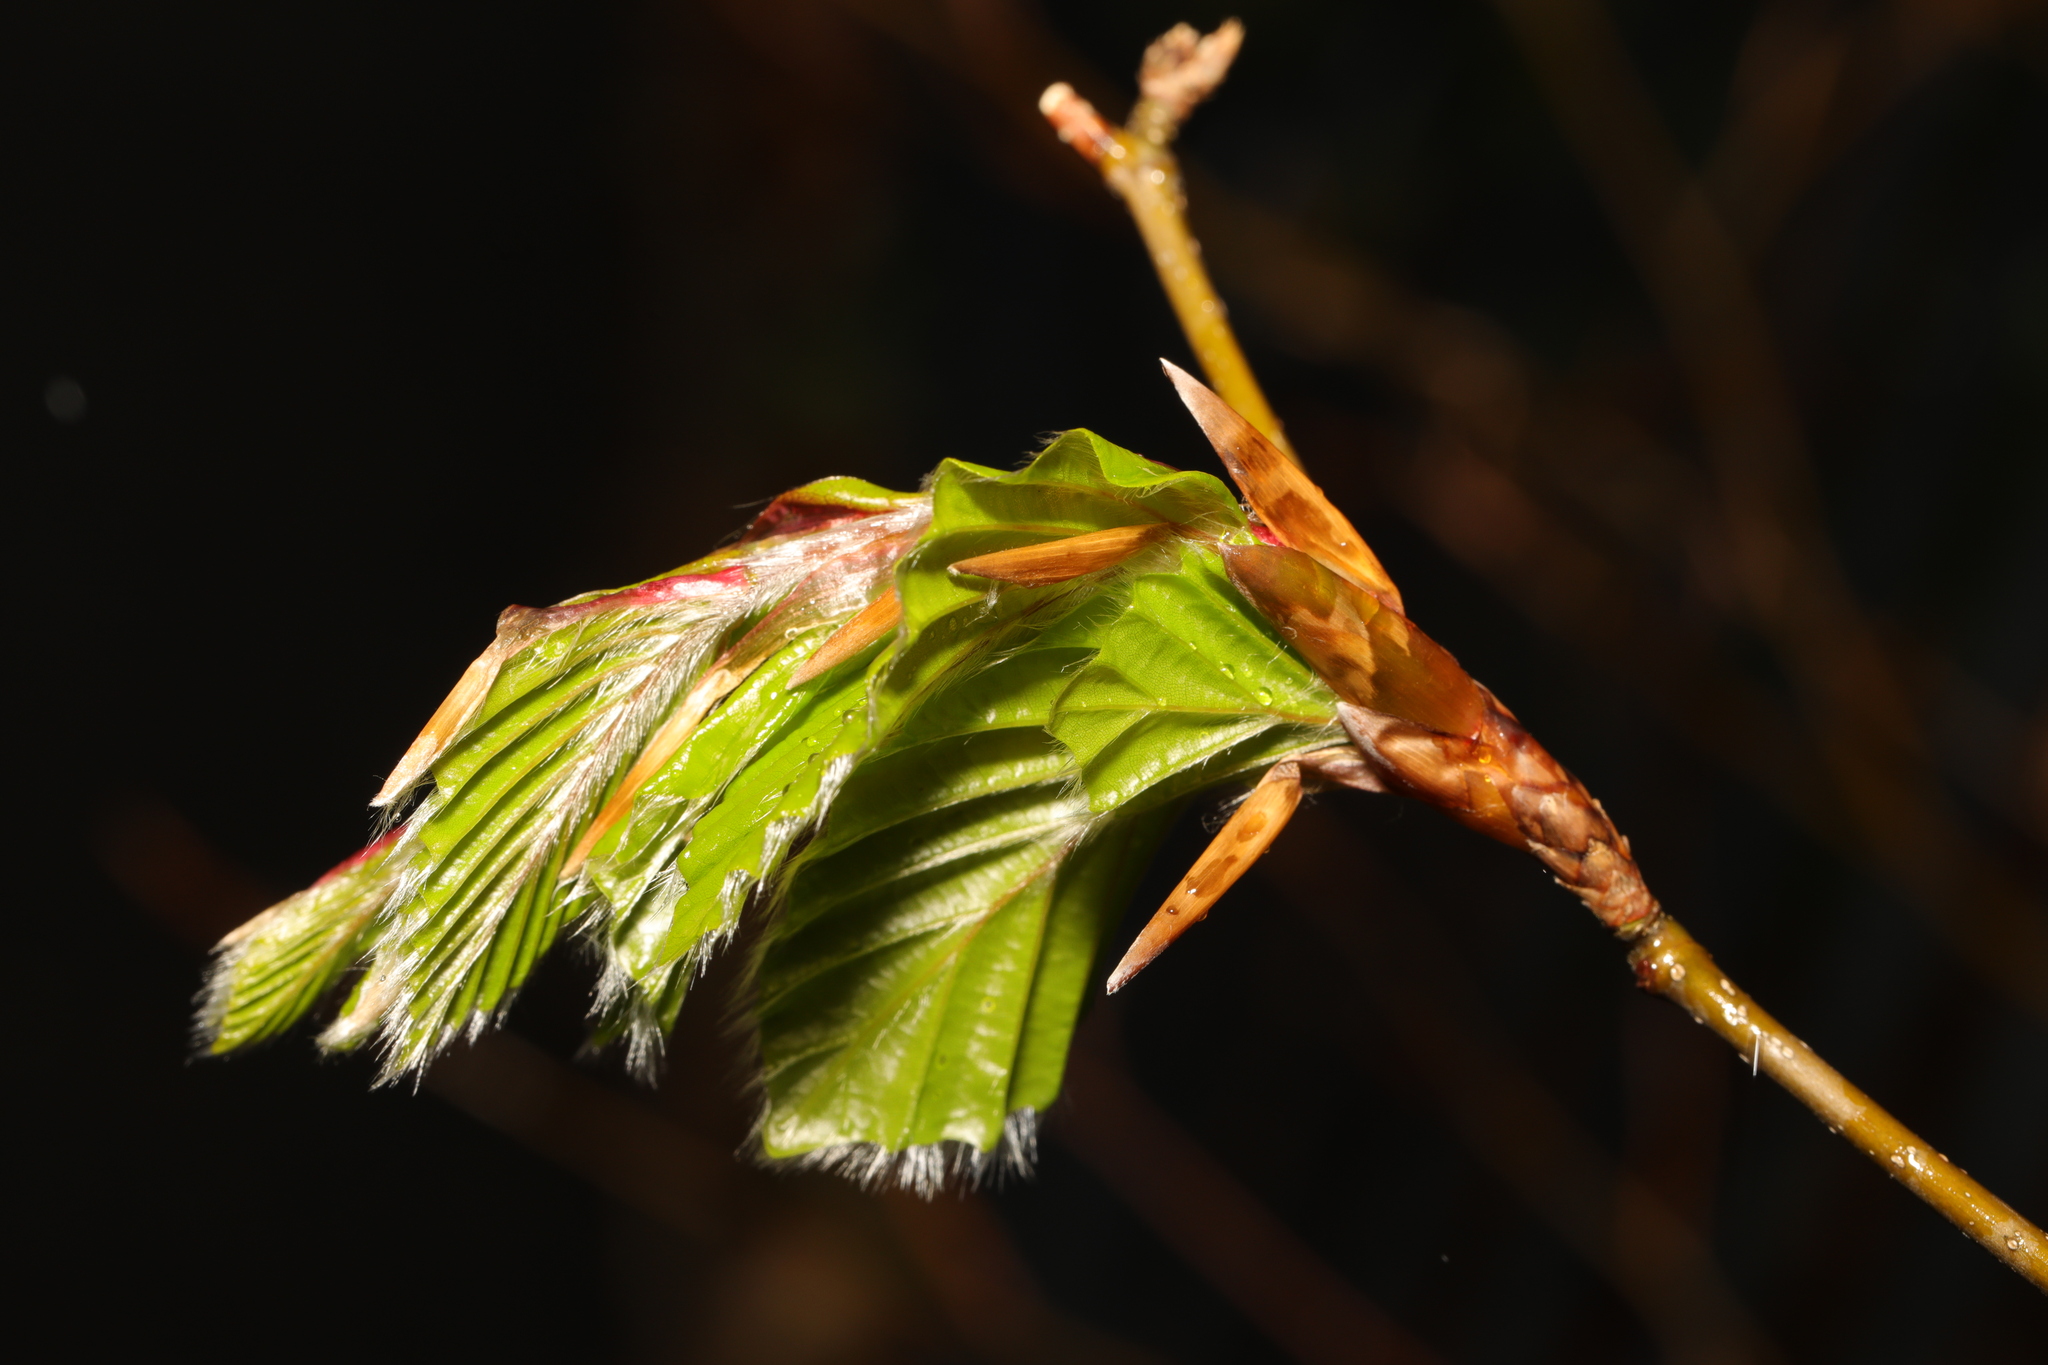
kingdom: Plantae
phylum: Tracheophyta
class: Magnoliopsida
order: Fagales
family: Fagaceae
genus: Fagus
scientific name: Fagus sylvatica
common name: Beech
